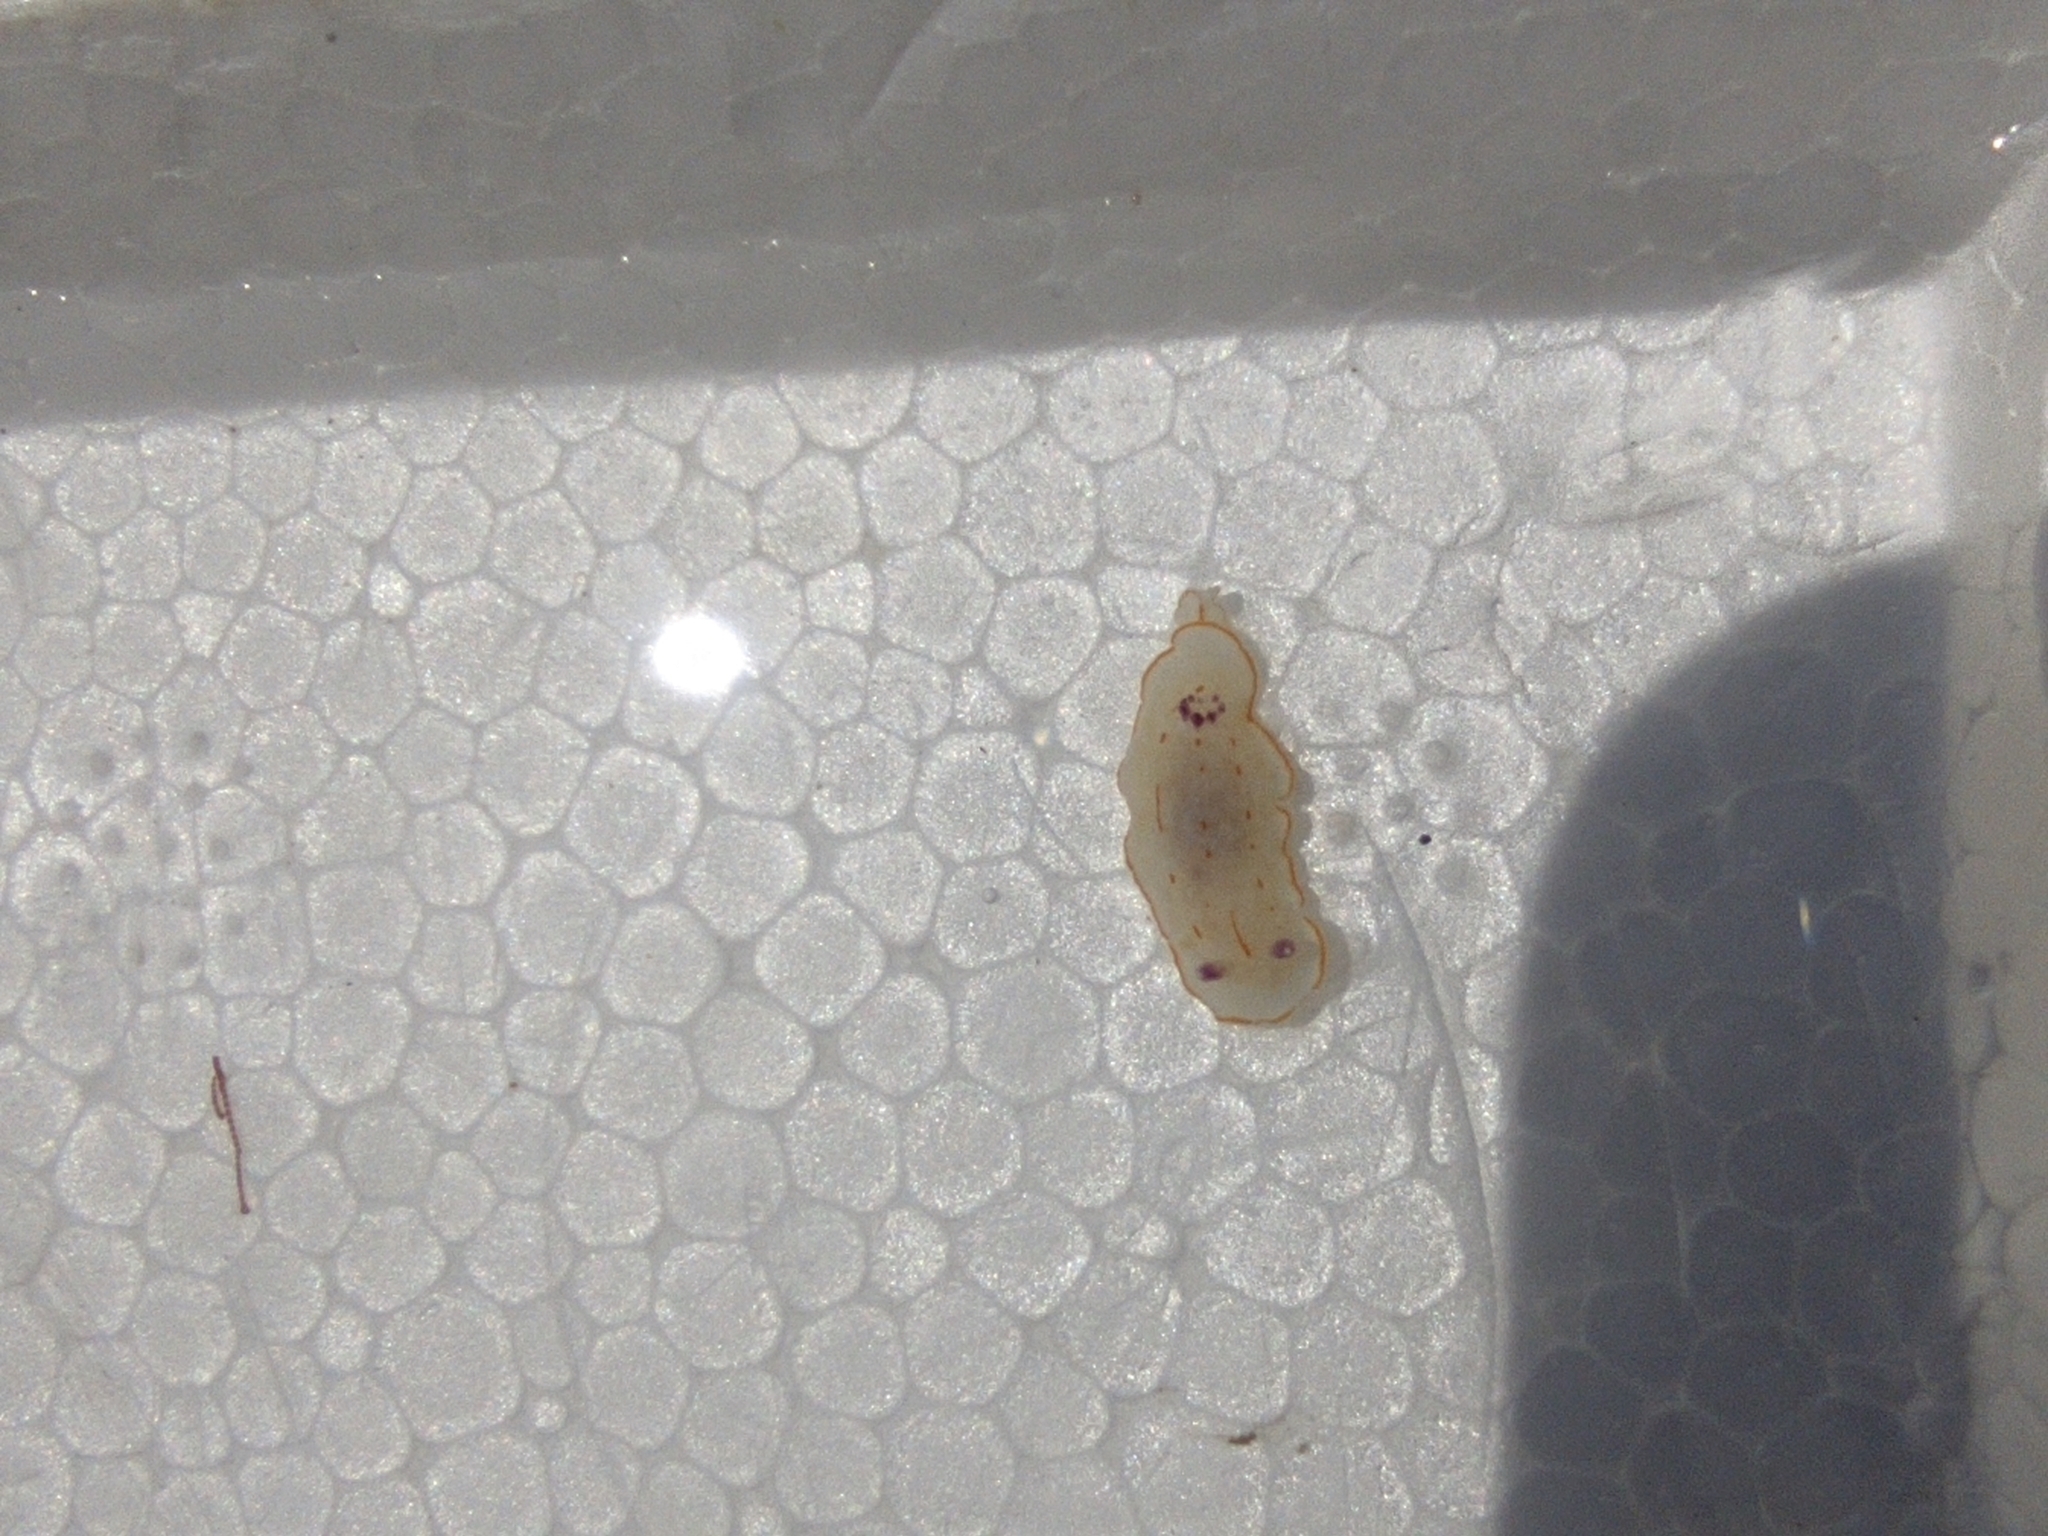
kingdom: Animalia
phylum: Mollusca
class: Gastropoda
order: Nudibranchia
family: Chromodorididae
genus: Felimida
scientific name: Felimida grahami
